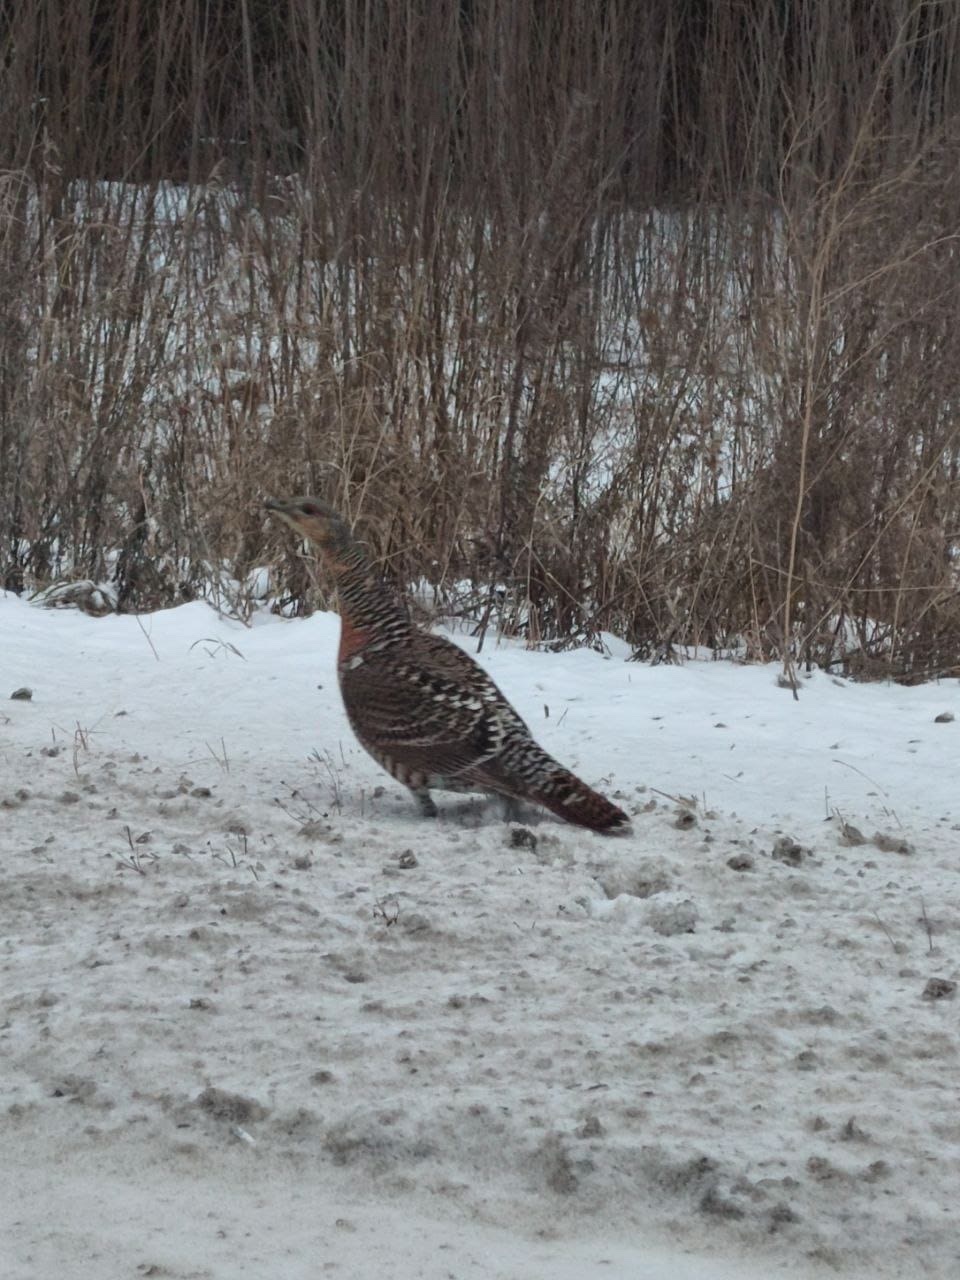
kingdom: Animalia
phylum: Chordata
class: Aves
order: Galliformes
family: Phasianidae
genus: Tetrao
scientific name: Tetrao urogallus
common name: Western capercaillie
